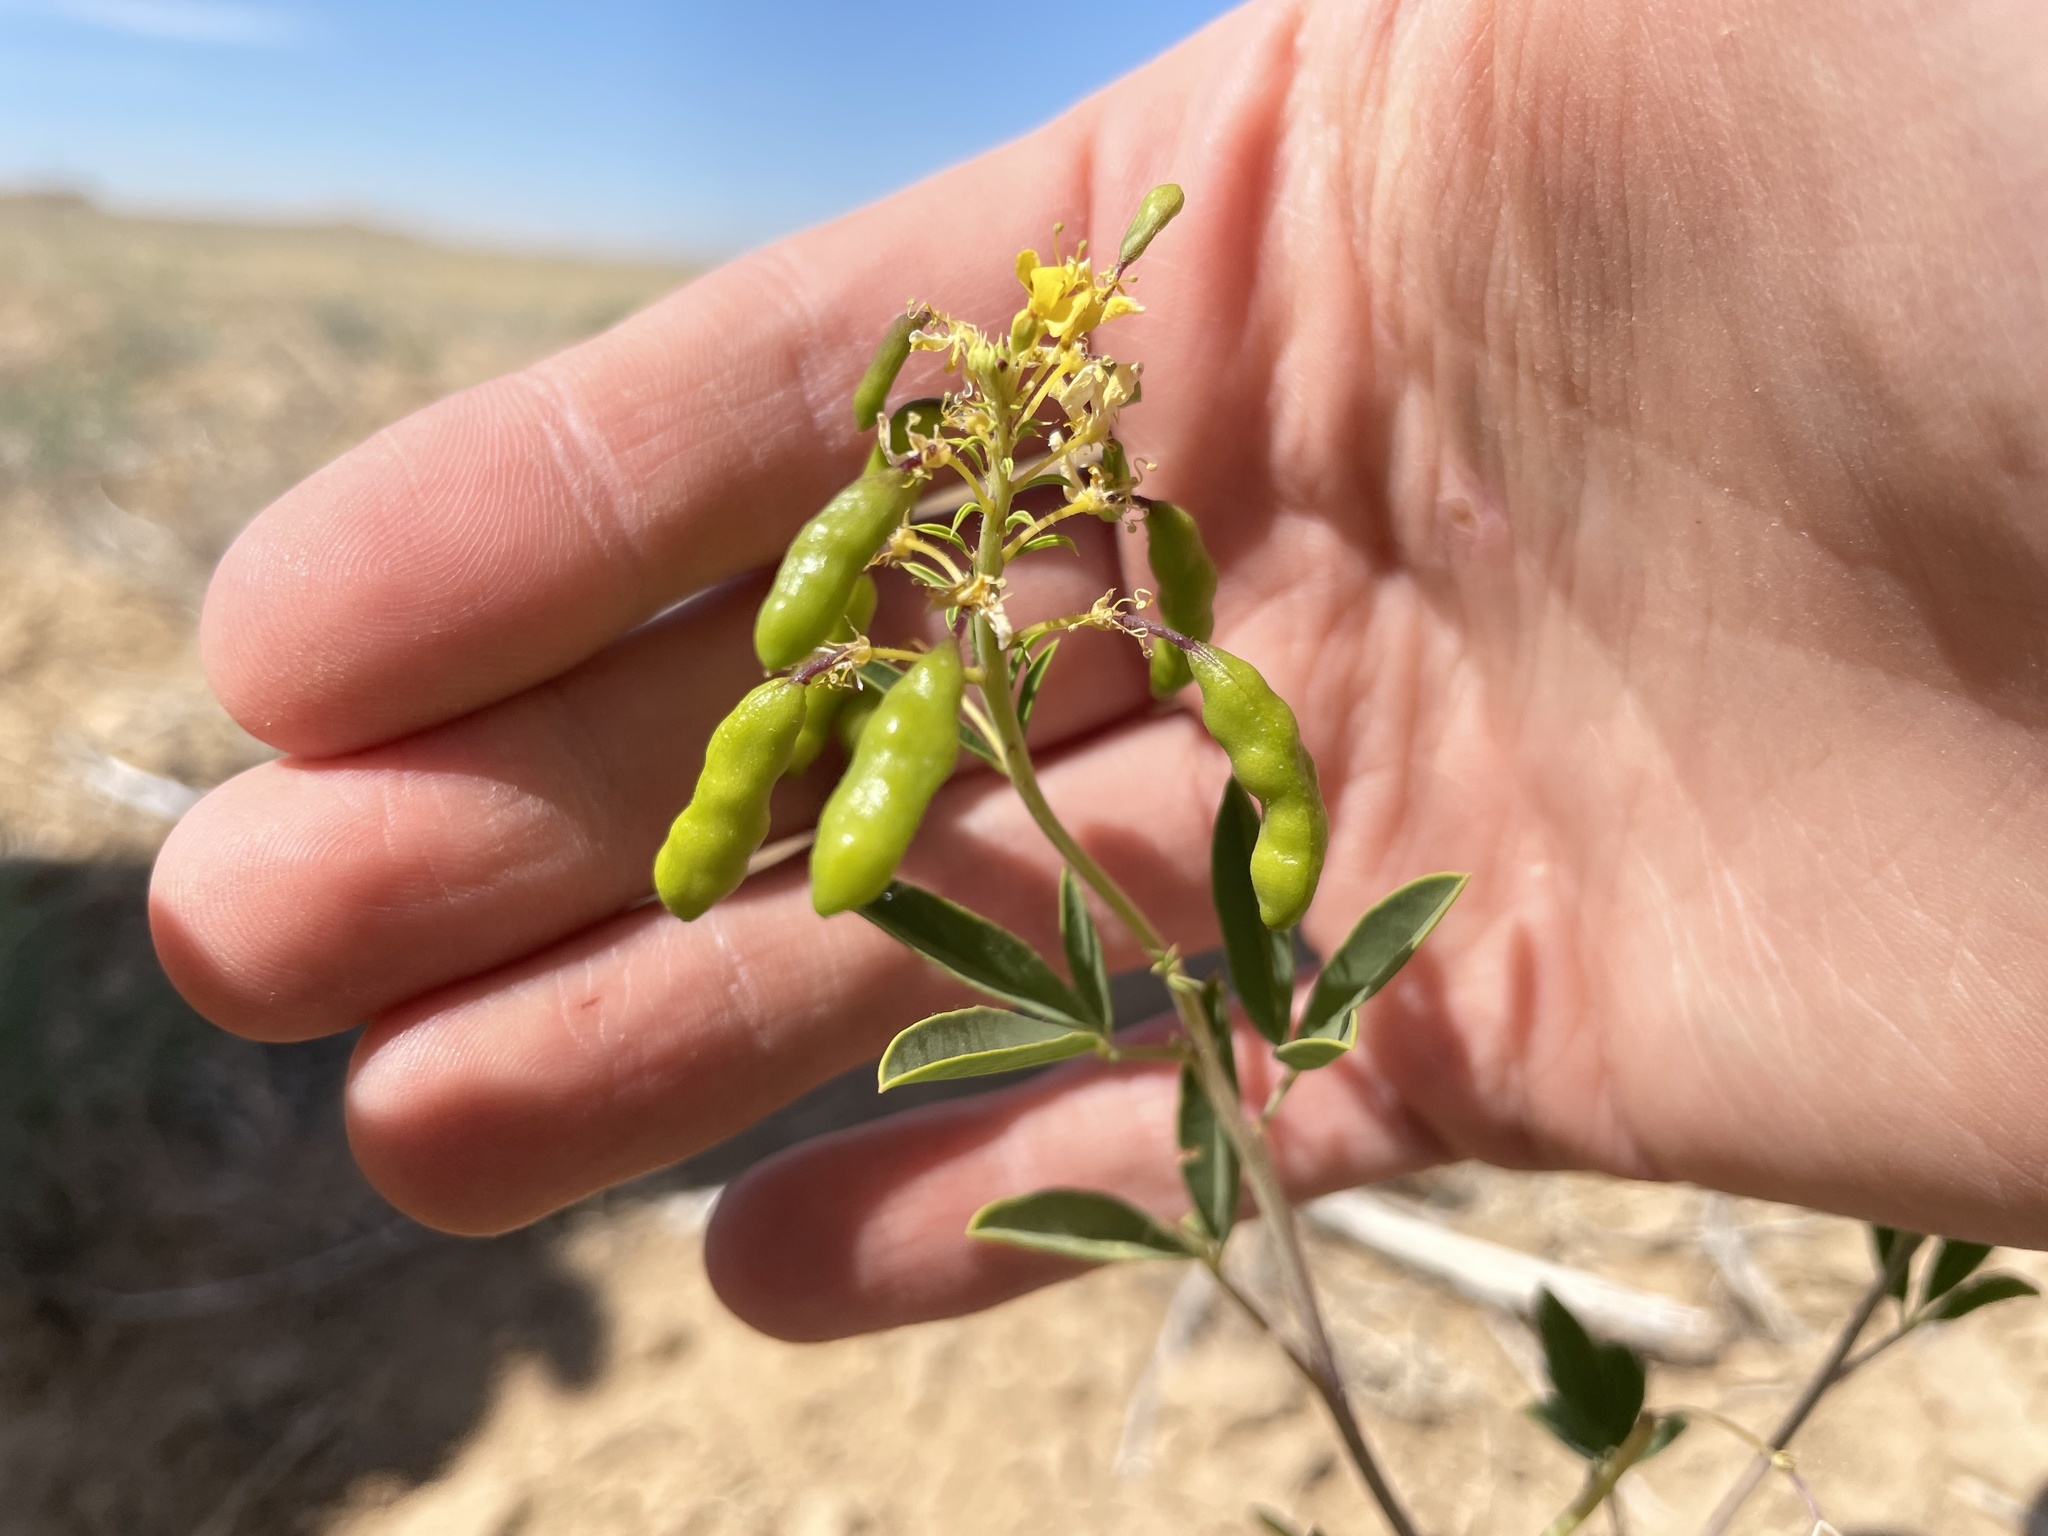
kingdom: Plantae
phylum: Tracheophyta
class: Magnoliopsida
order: Brassicales
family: Cleomaceae
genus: Cleomella
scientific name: Cleomella lutea
